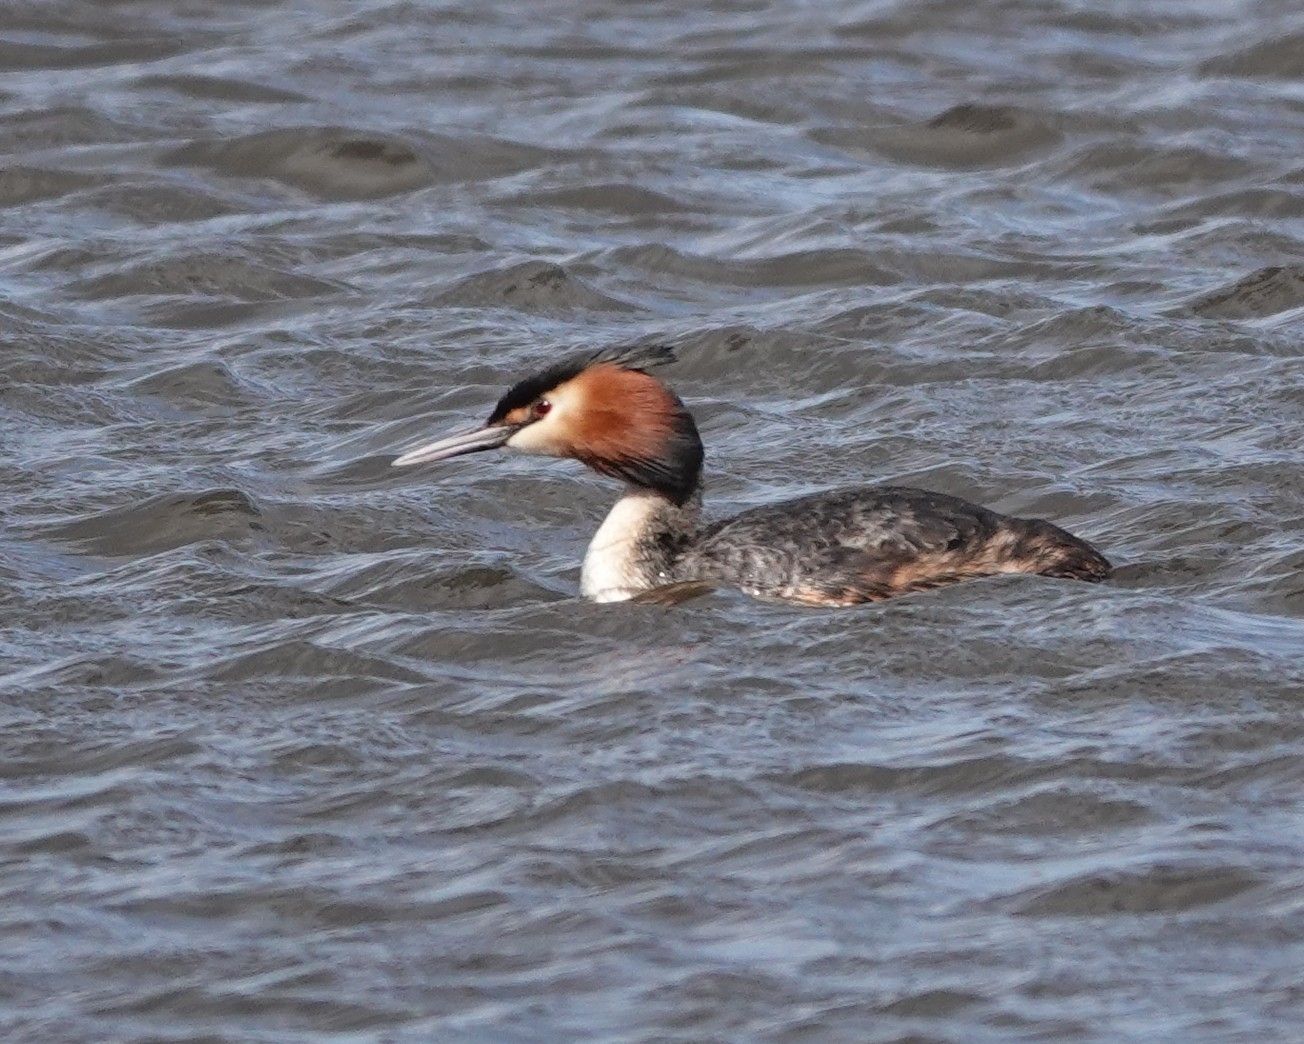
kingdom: Animalia
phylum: Chordata
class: Aves
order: Podicipediformes
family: Podicipedidae
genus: Podiceps
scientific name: Podiceps cristatus
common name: Great crested grebe
